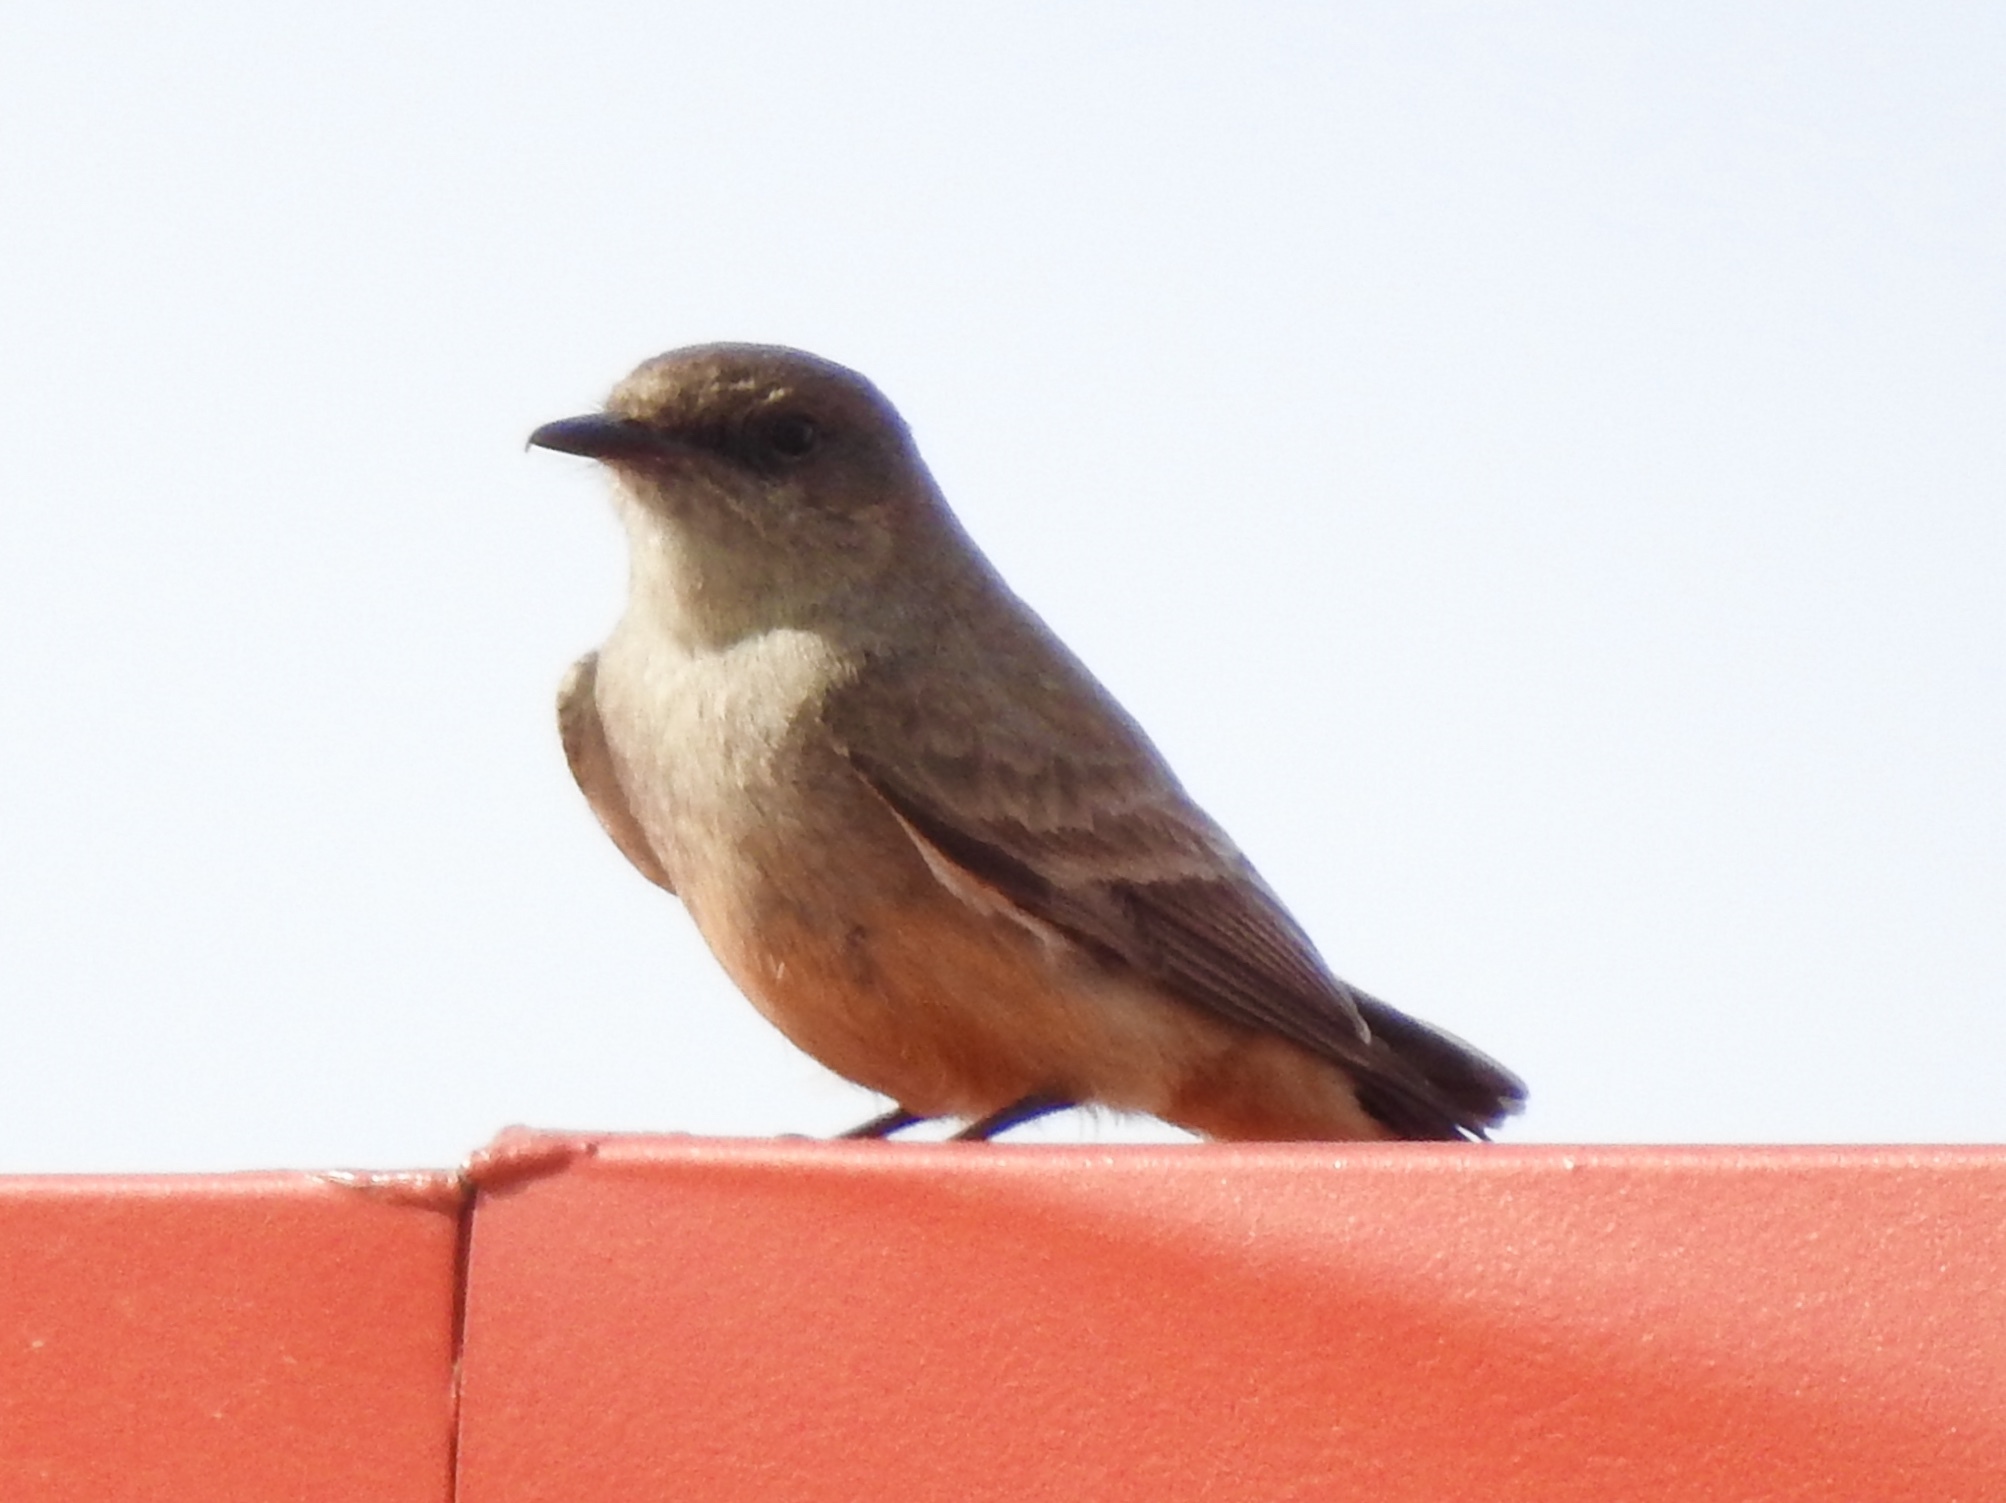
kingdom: Animalia
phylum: Chordata
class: Aves
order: Passeriformes
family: Tyrannidae
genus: Sayornis
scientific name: Sayornis saya
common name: Say's phoebe
